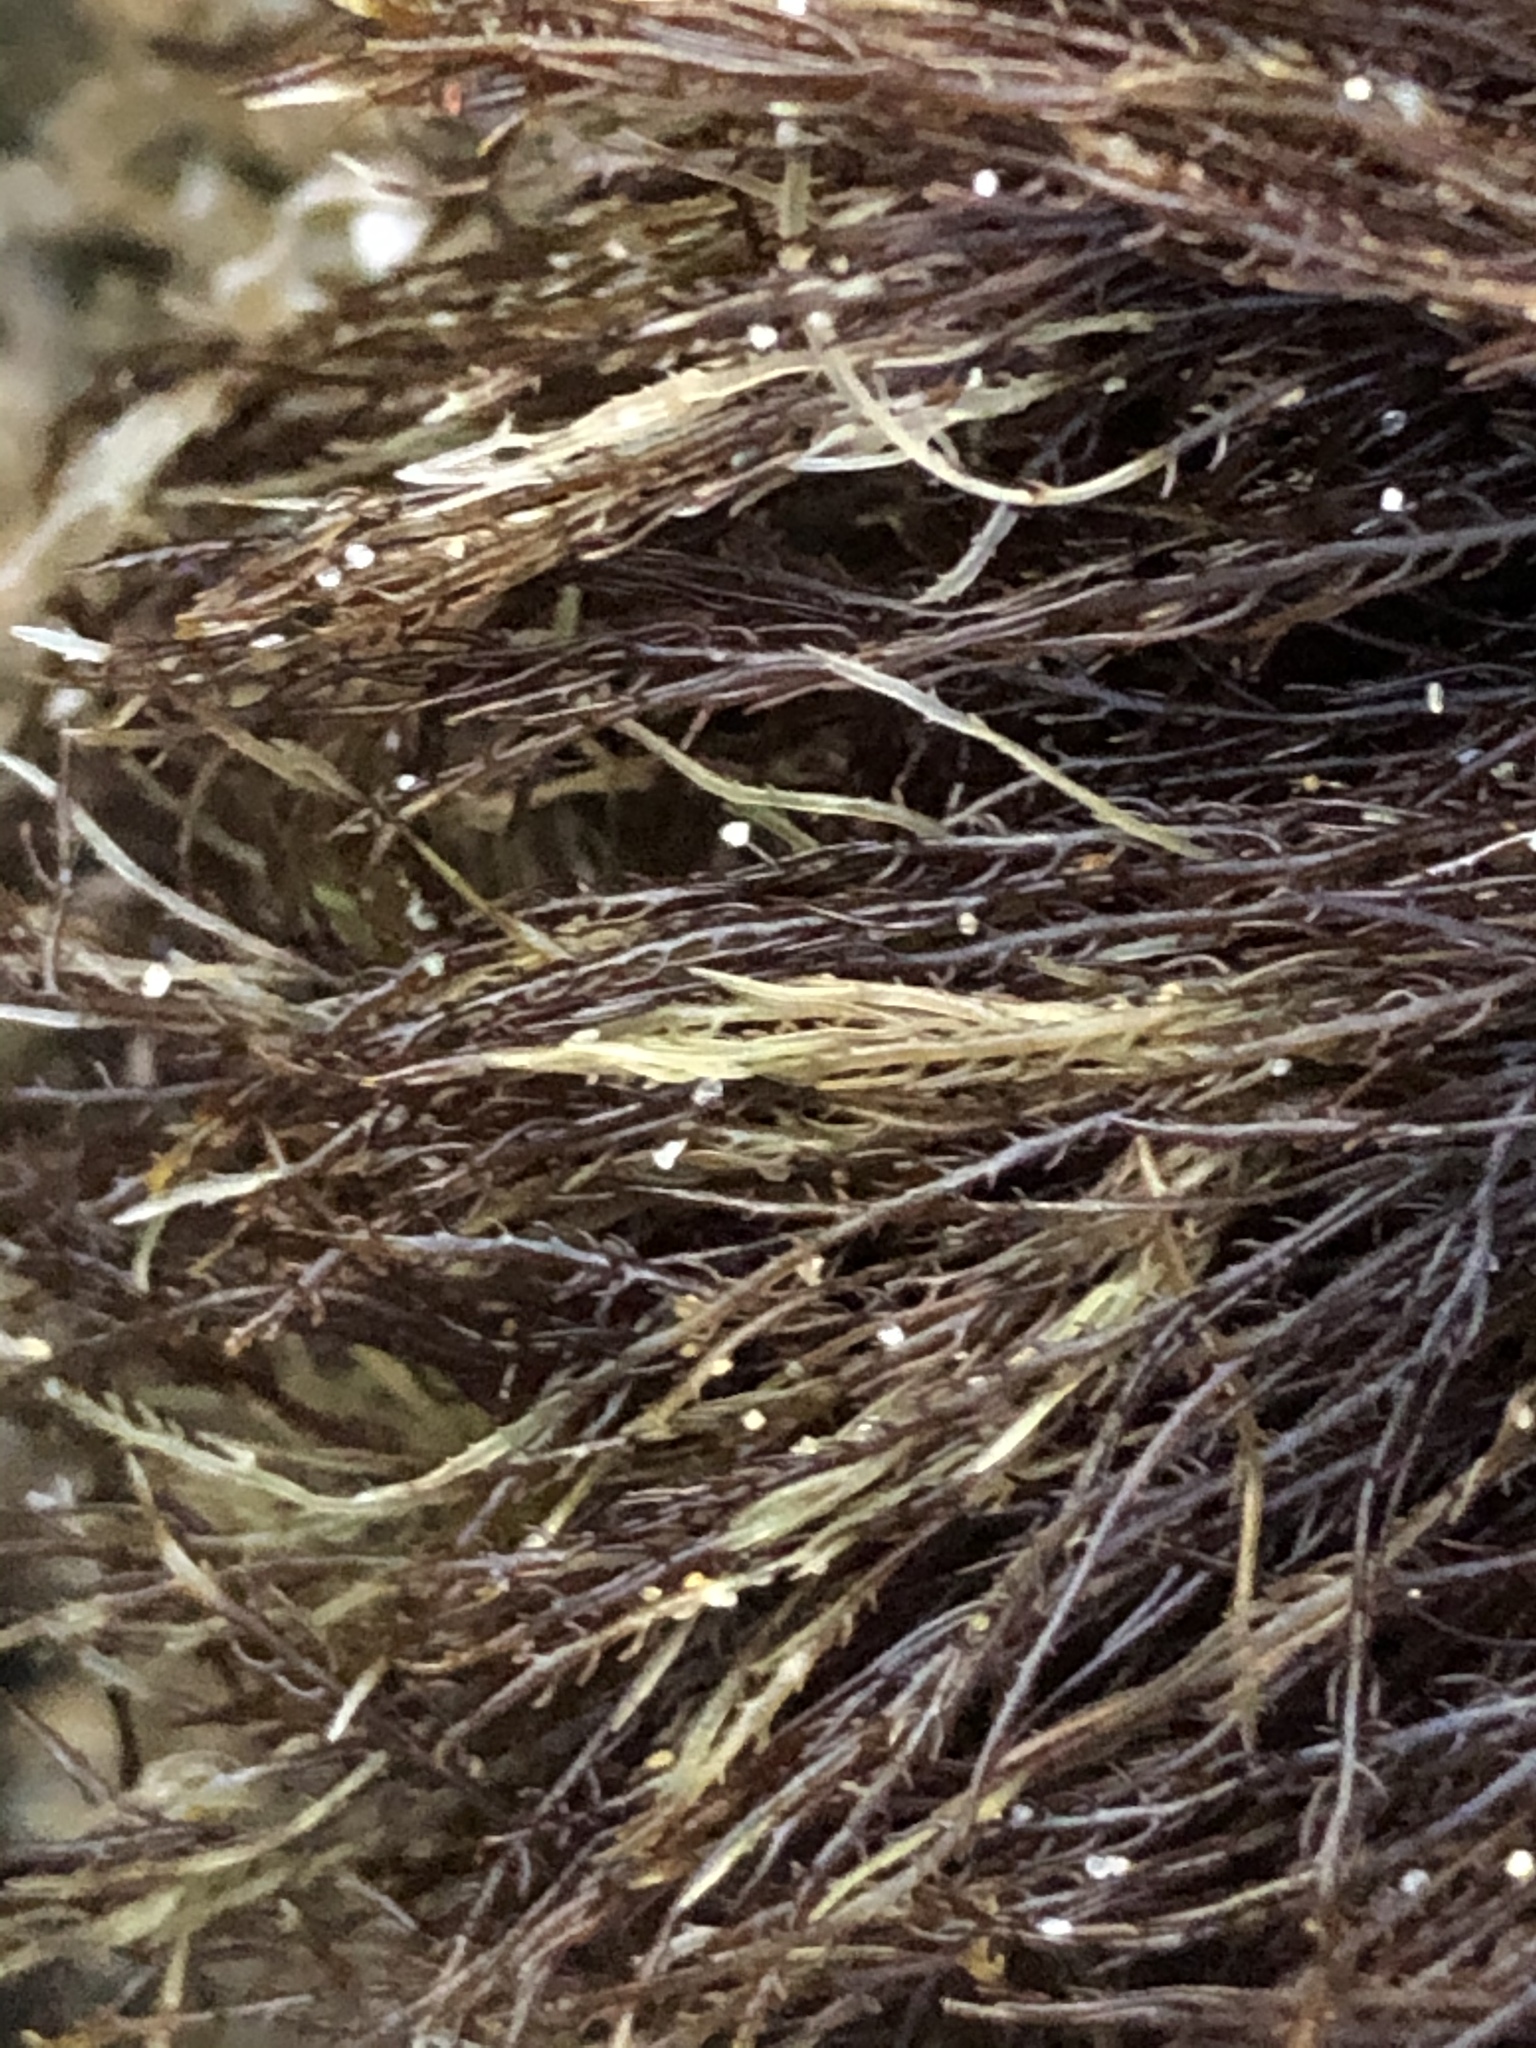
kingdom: Plantae
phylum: Rhodophyta
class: Florideophyceae
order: Gelidiales
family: Gelidiaceae
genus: Gelidium
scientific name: Gelidium coulteri
